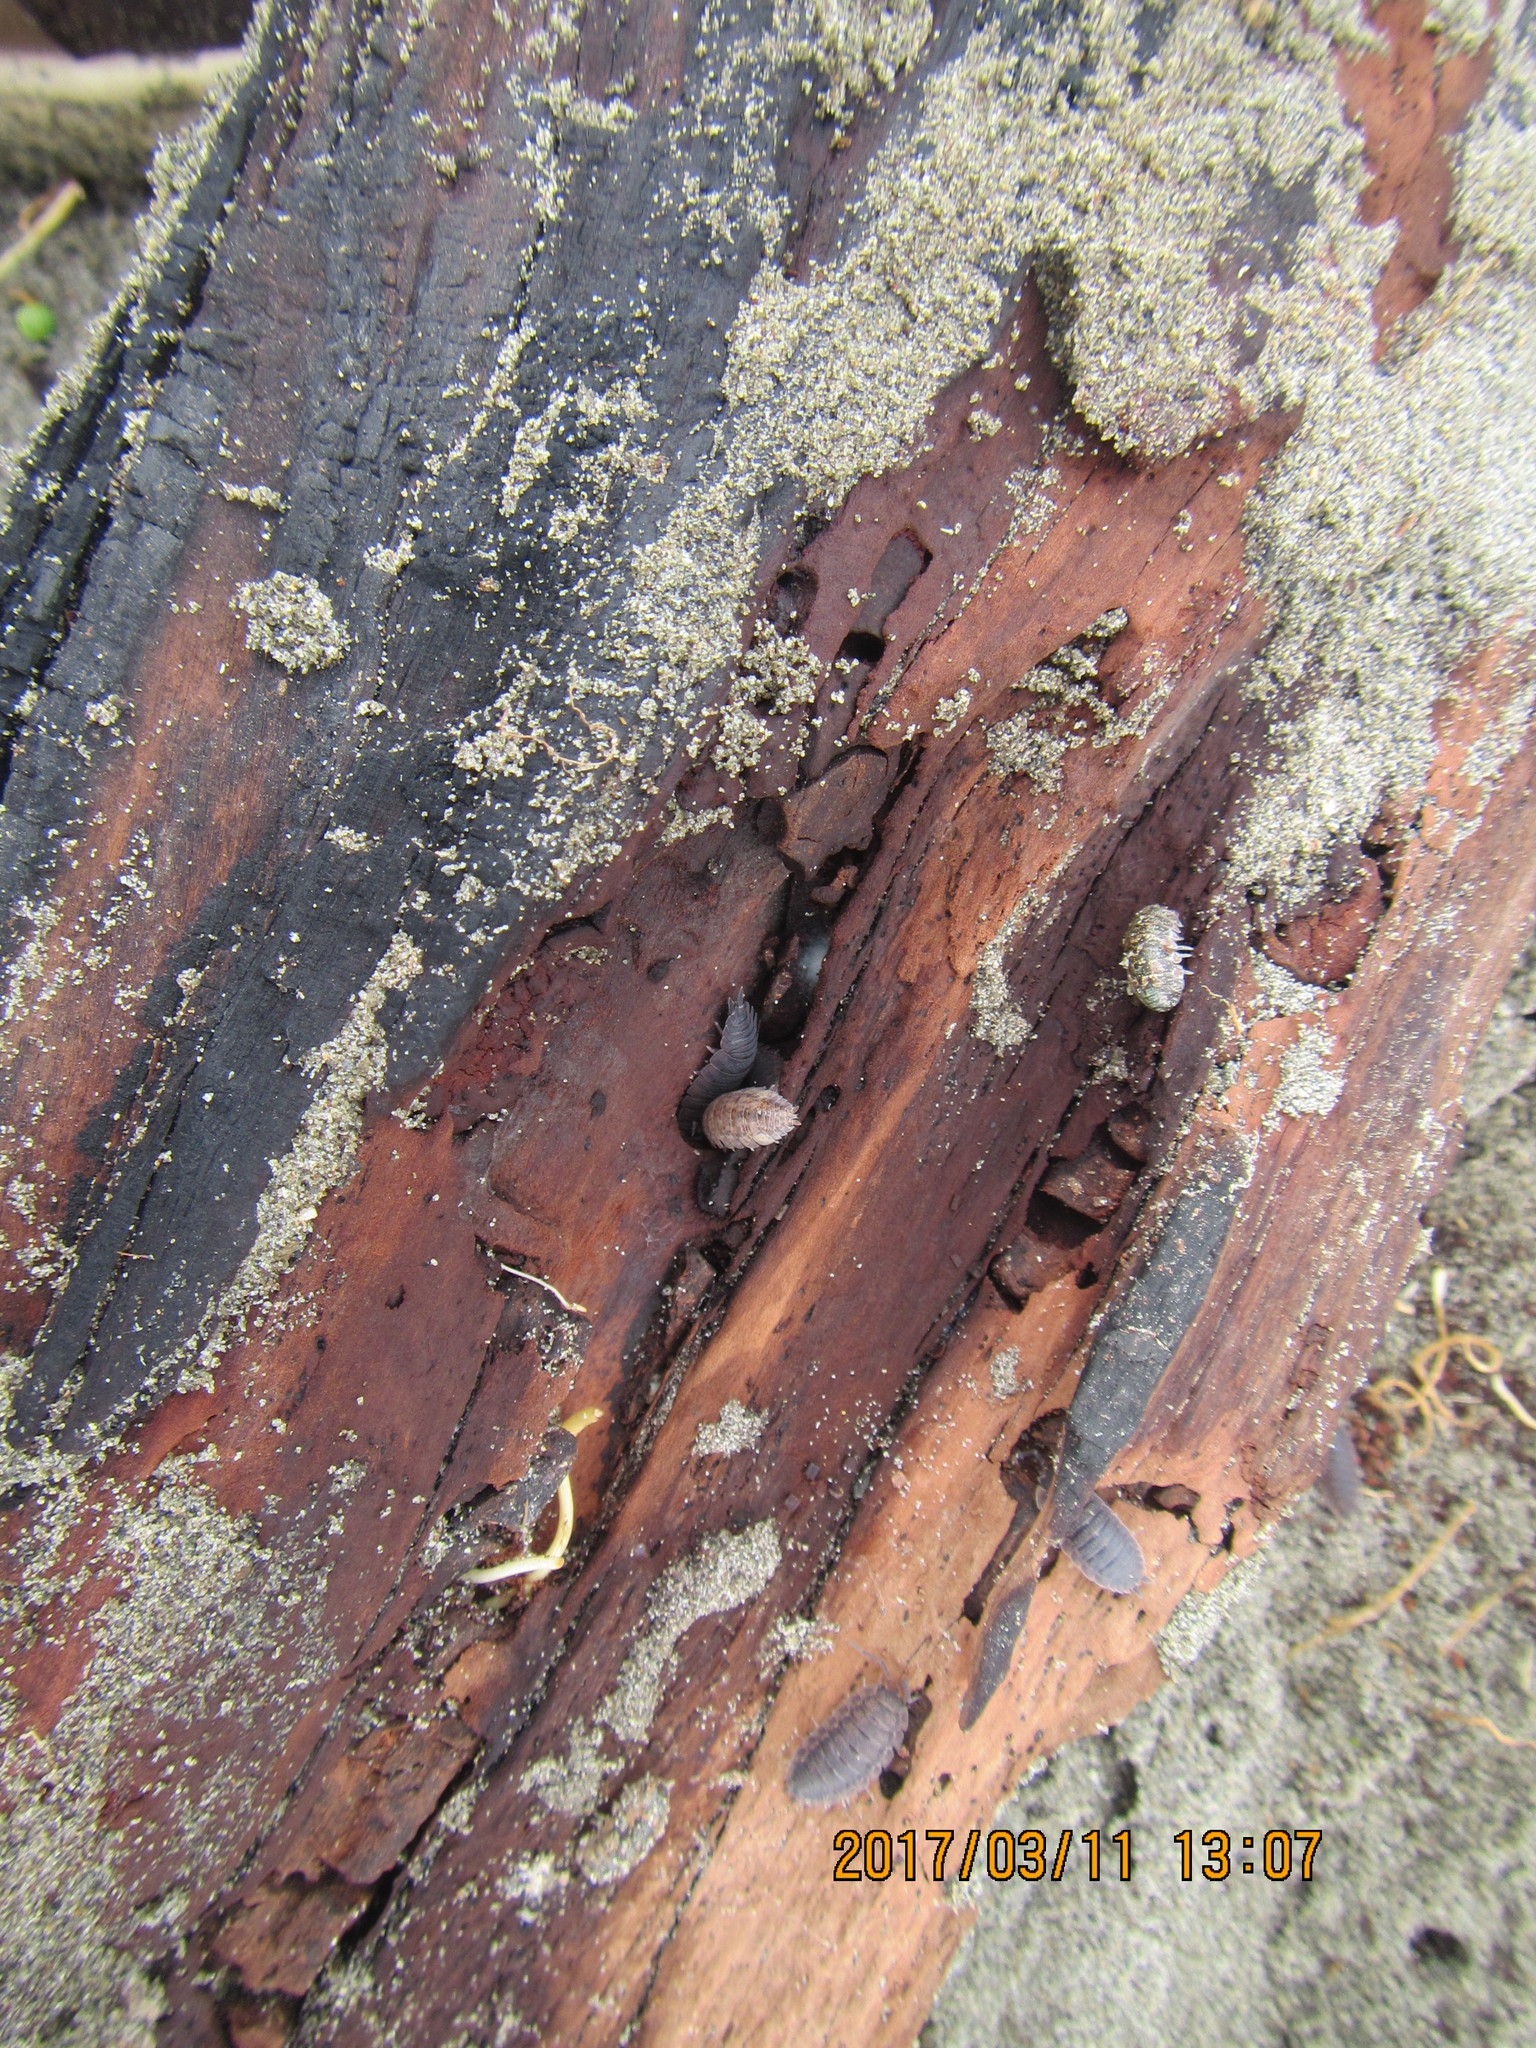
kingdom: Animalia
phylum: Arthropoda
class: Malacostraca
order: Isopoda
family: Tylidae
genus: Tylos
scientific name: Tylos neozelanicus
